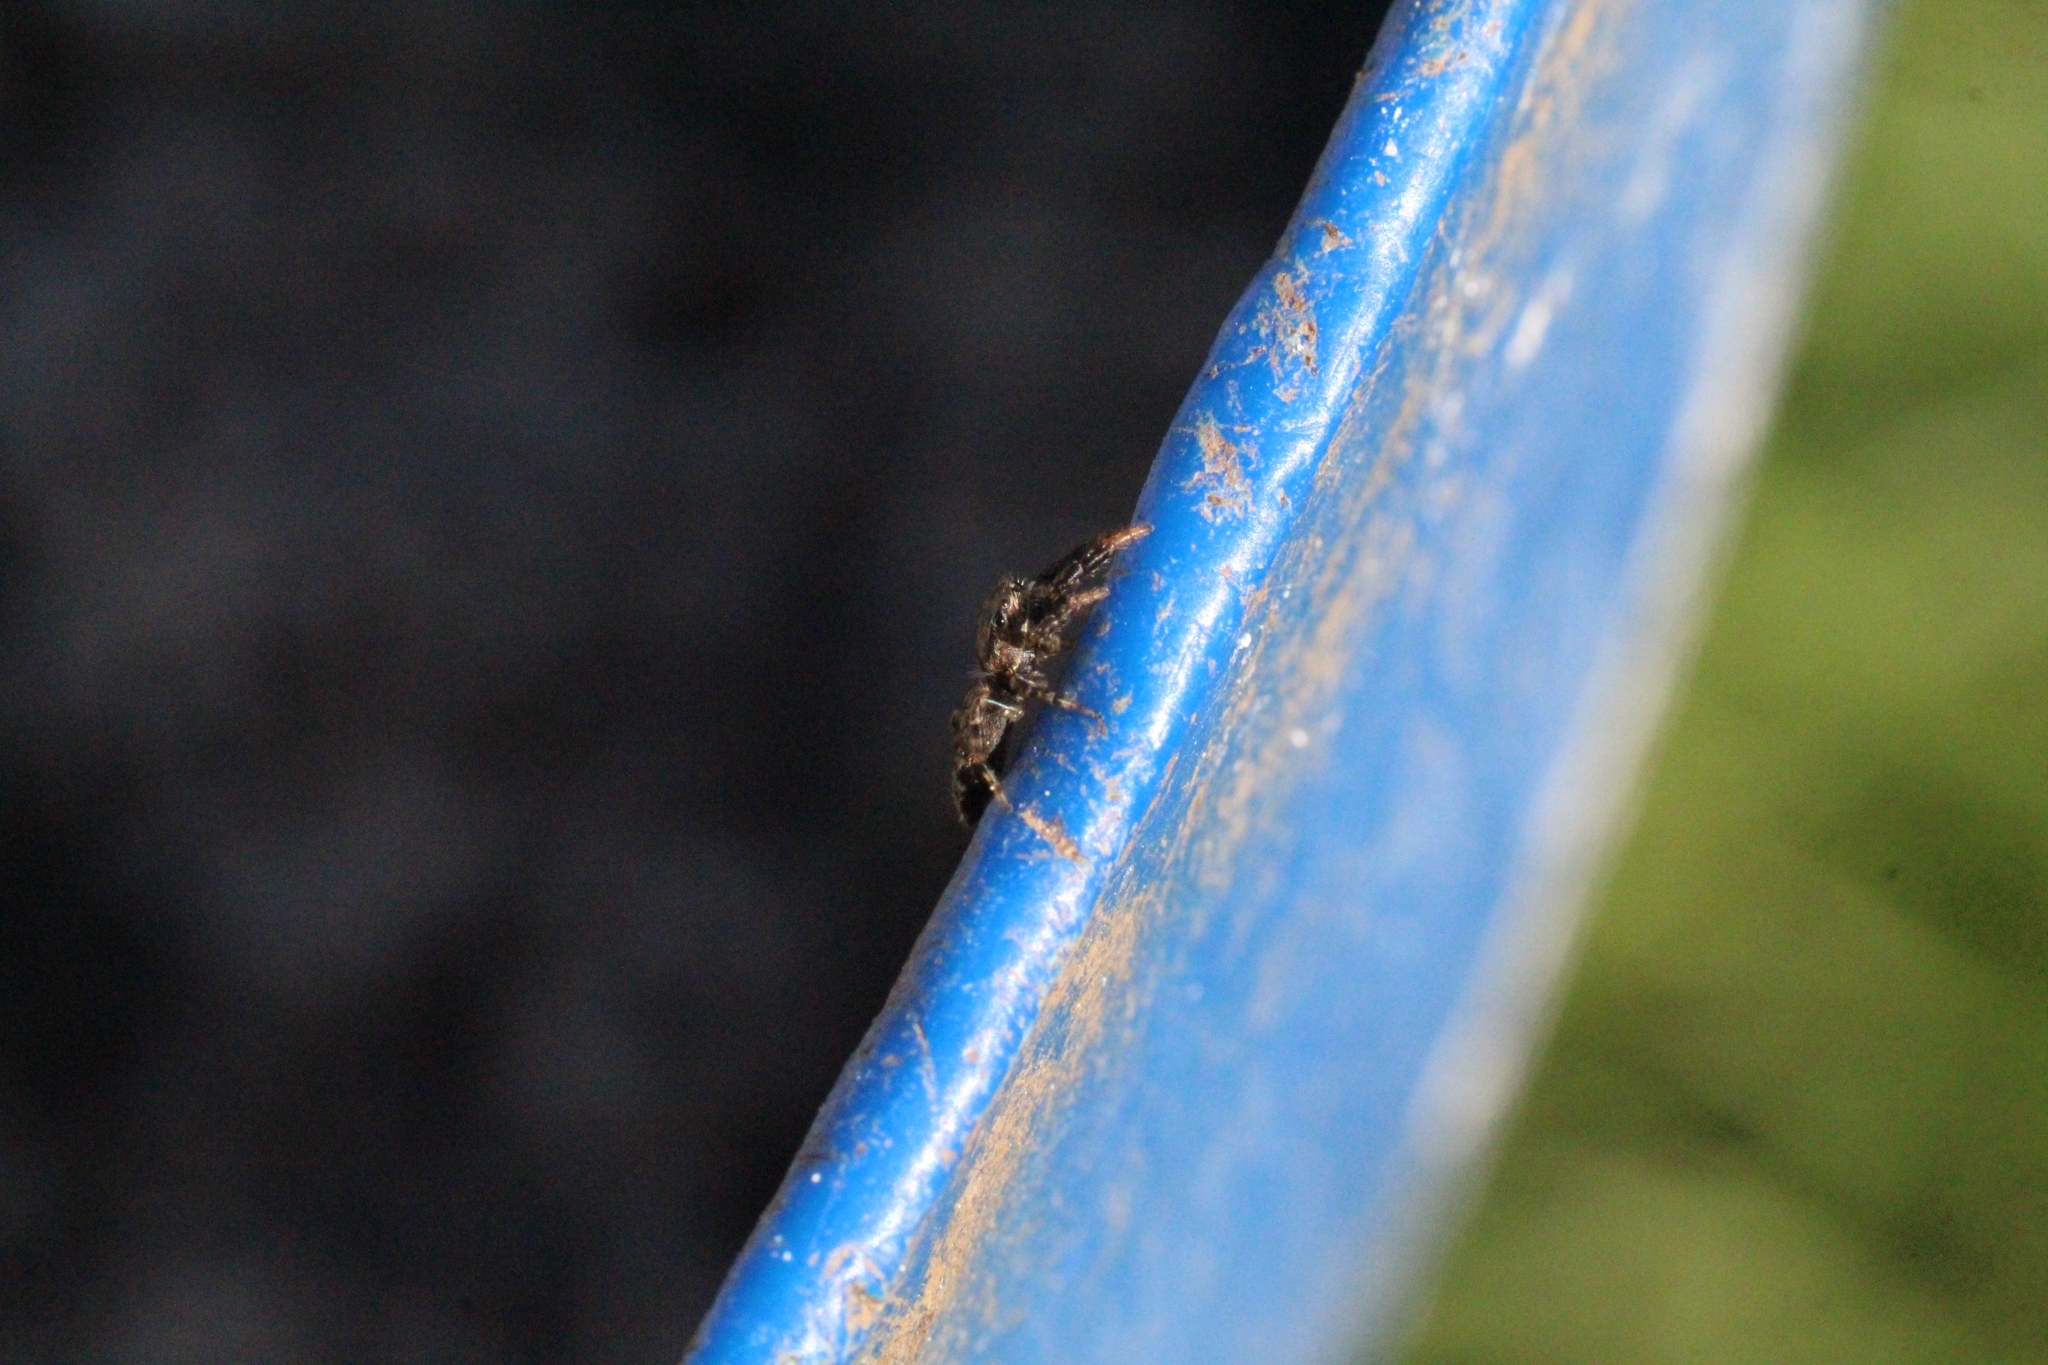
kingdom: Animalia
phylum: Arthropoda
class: Arachnida
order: Araneae
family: Salticidae
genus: Marpissa
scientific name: Marpissa muscosa
